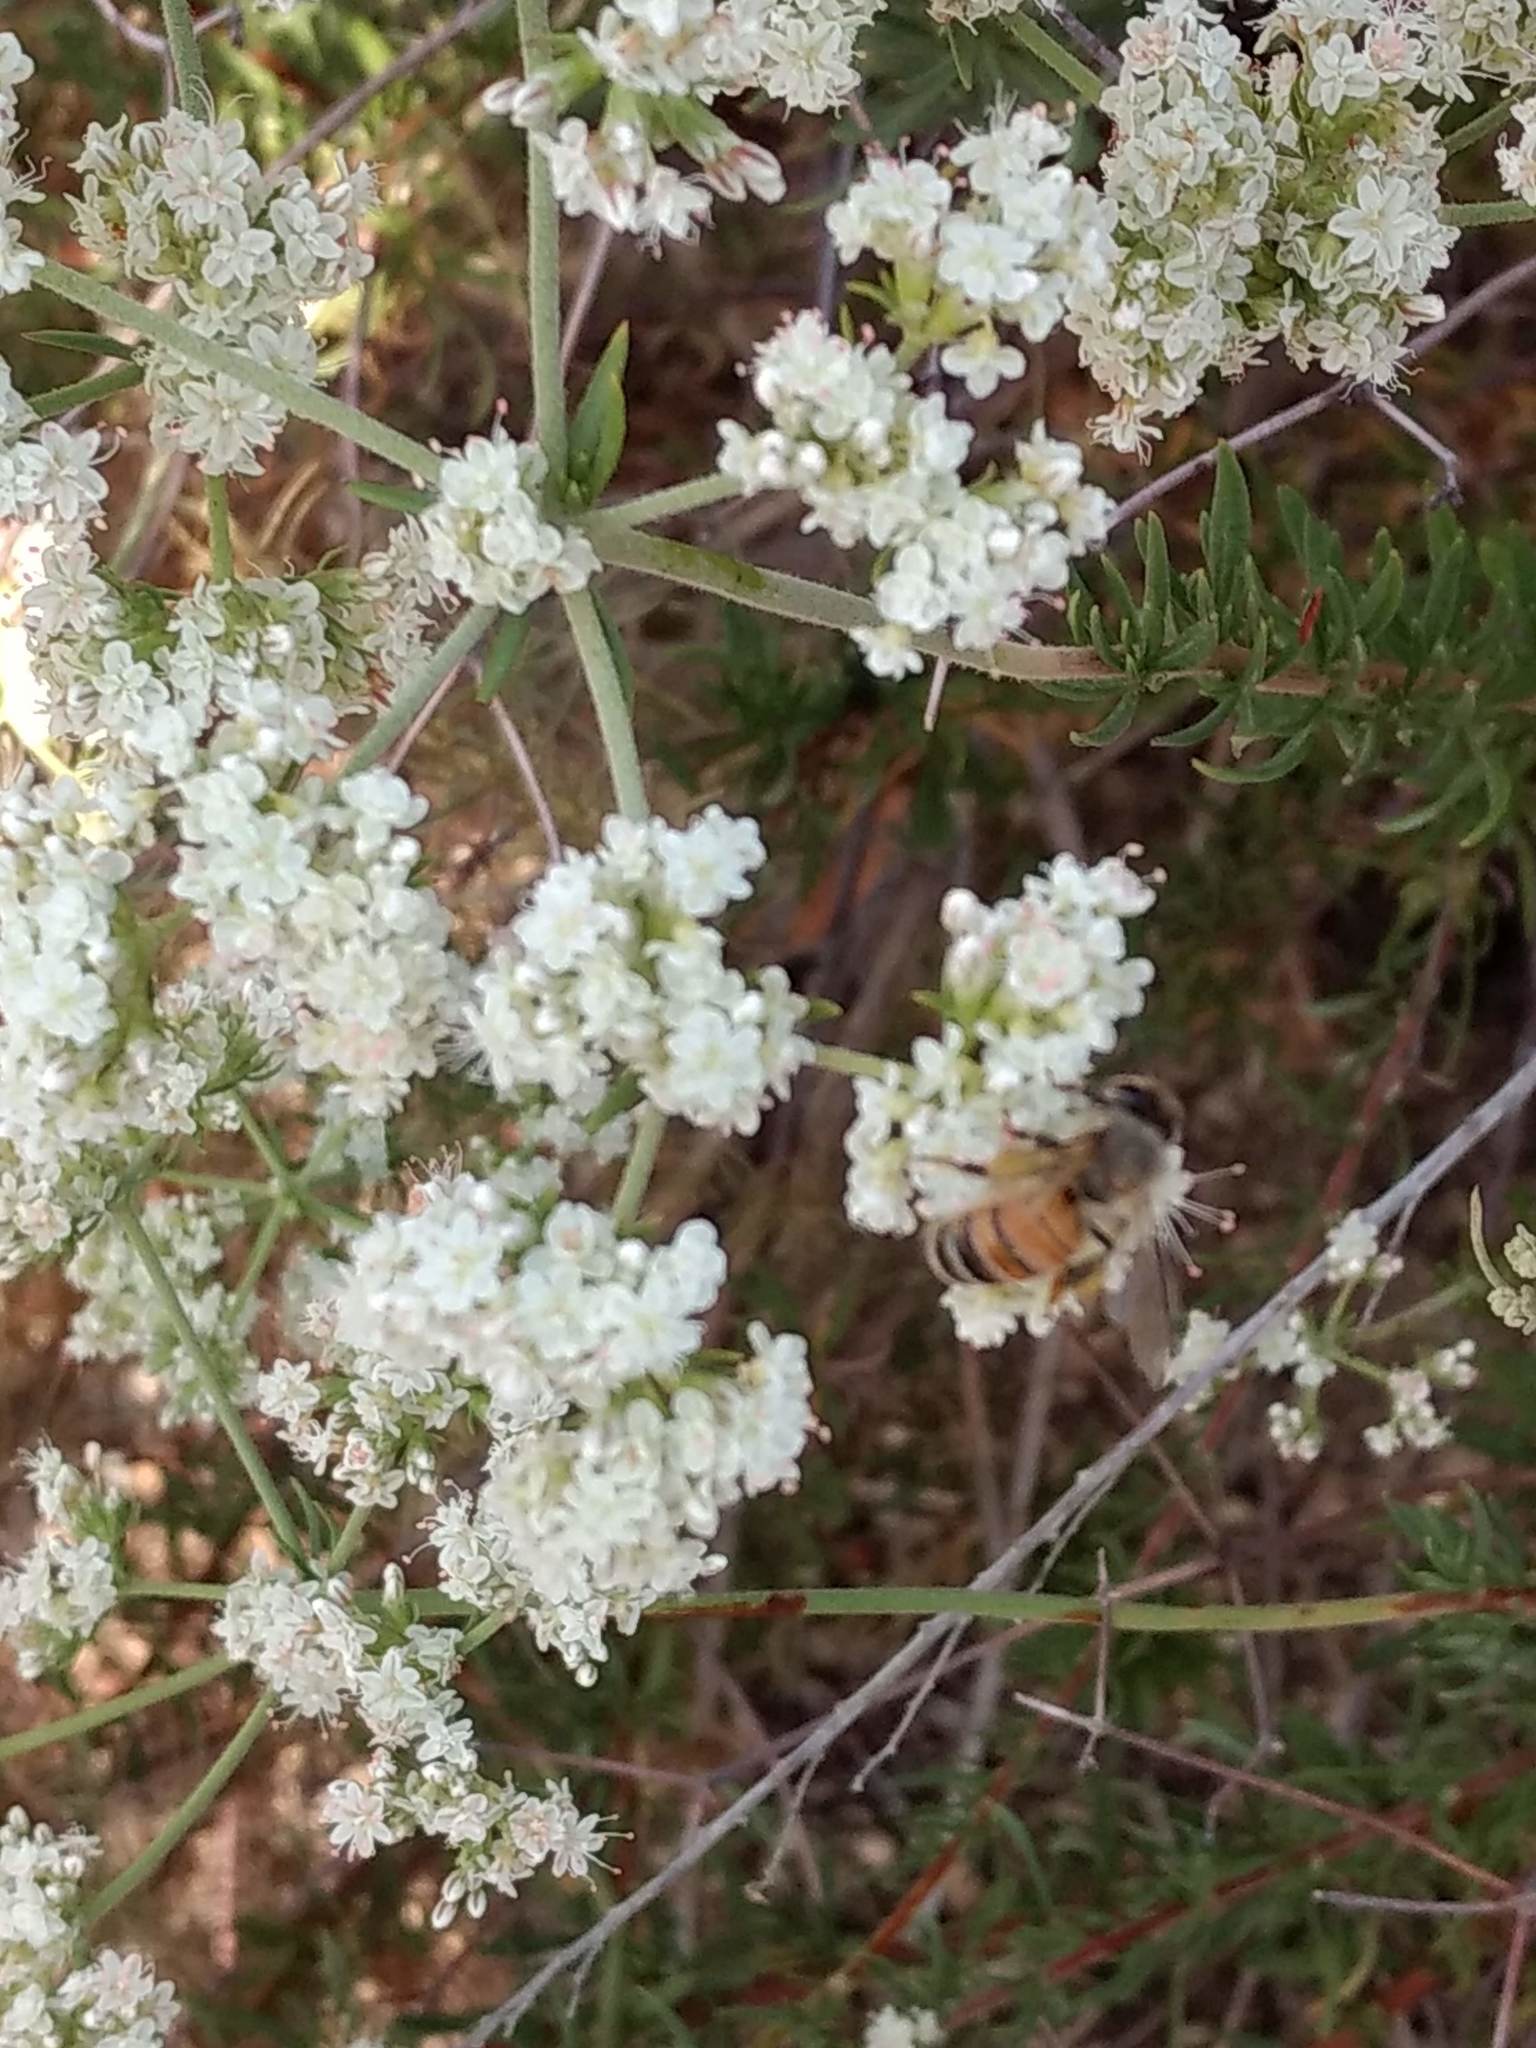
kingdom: Animalia
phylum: Arthropoda
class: Insecta
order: Hymenoptera
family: Apidae
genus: Apis
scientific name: Apis mellifera
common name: Honey bee
